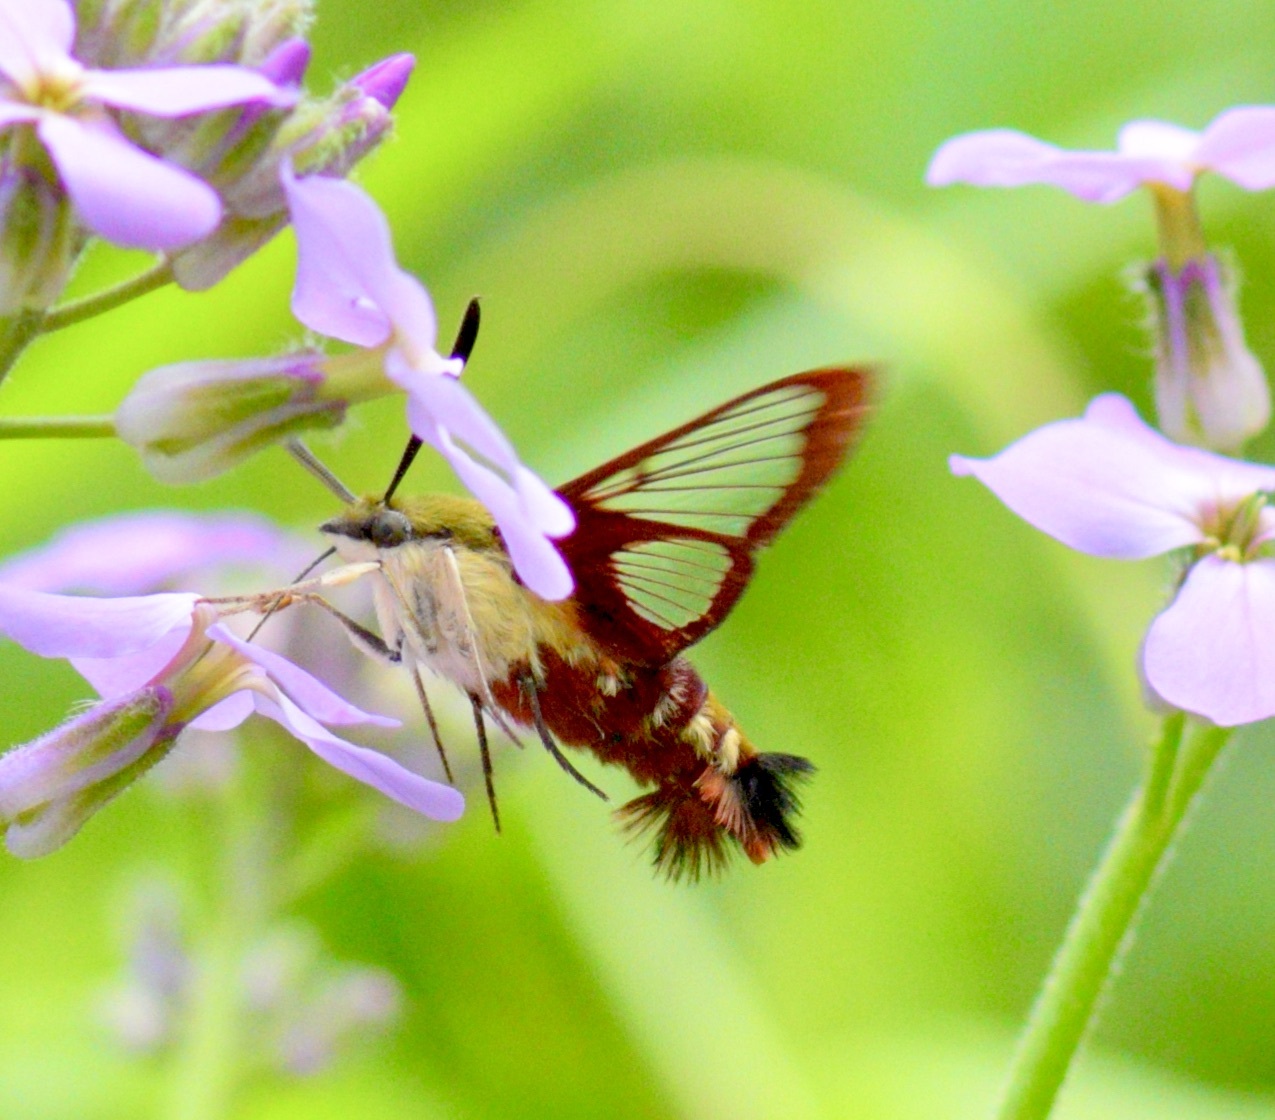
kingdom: Animalia
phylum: Arthropoda
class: Insecta
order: Lepidoptera
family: Sphingidae
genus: Hemaris
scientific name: Hemaris thysbe
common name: Common clear-wing
